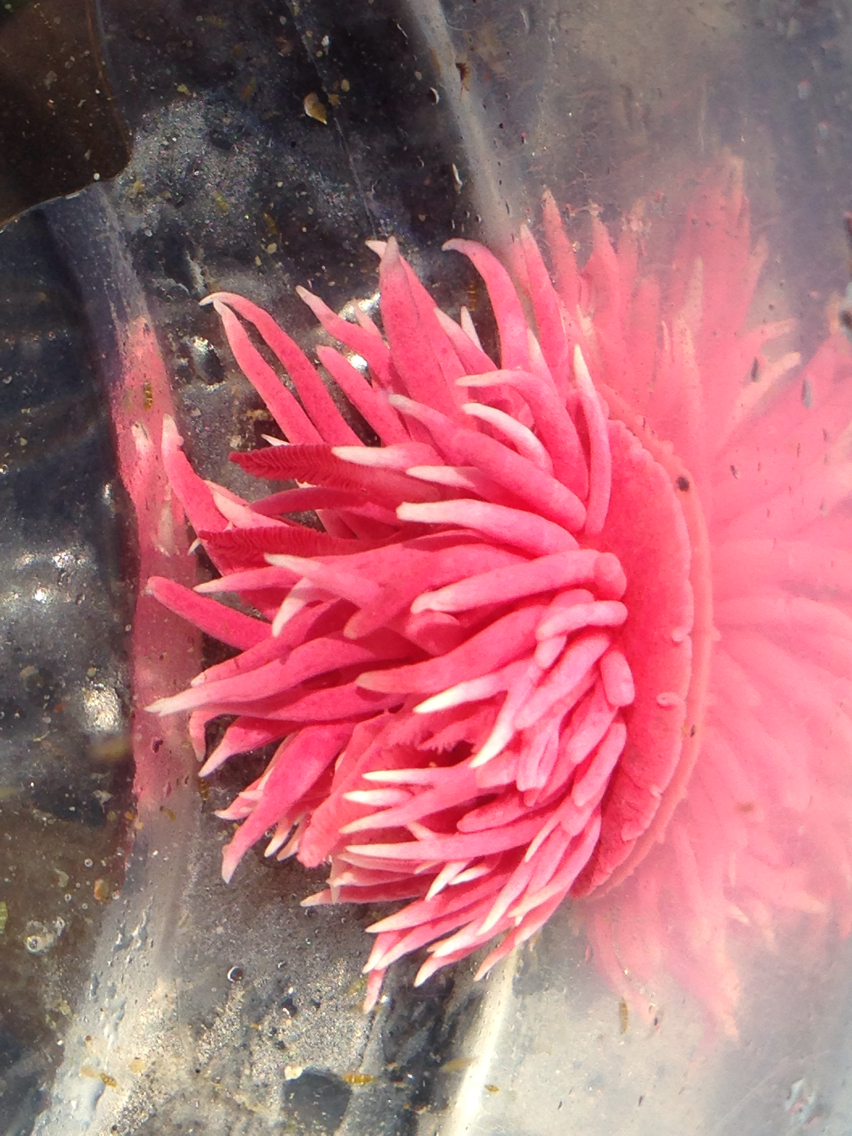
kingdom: Animalia
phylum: Mollusca
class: Gastropoda
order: Nudibranchia
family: Goniodorididae
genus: Okenia
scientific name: Okenia
